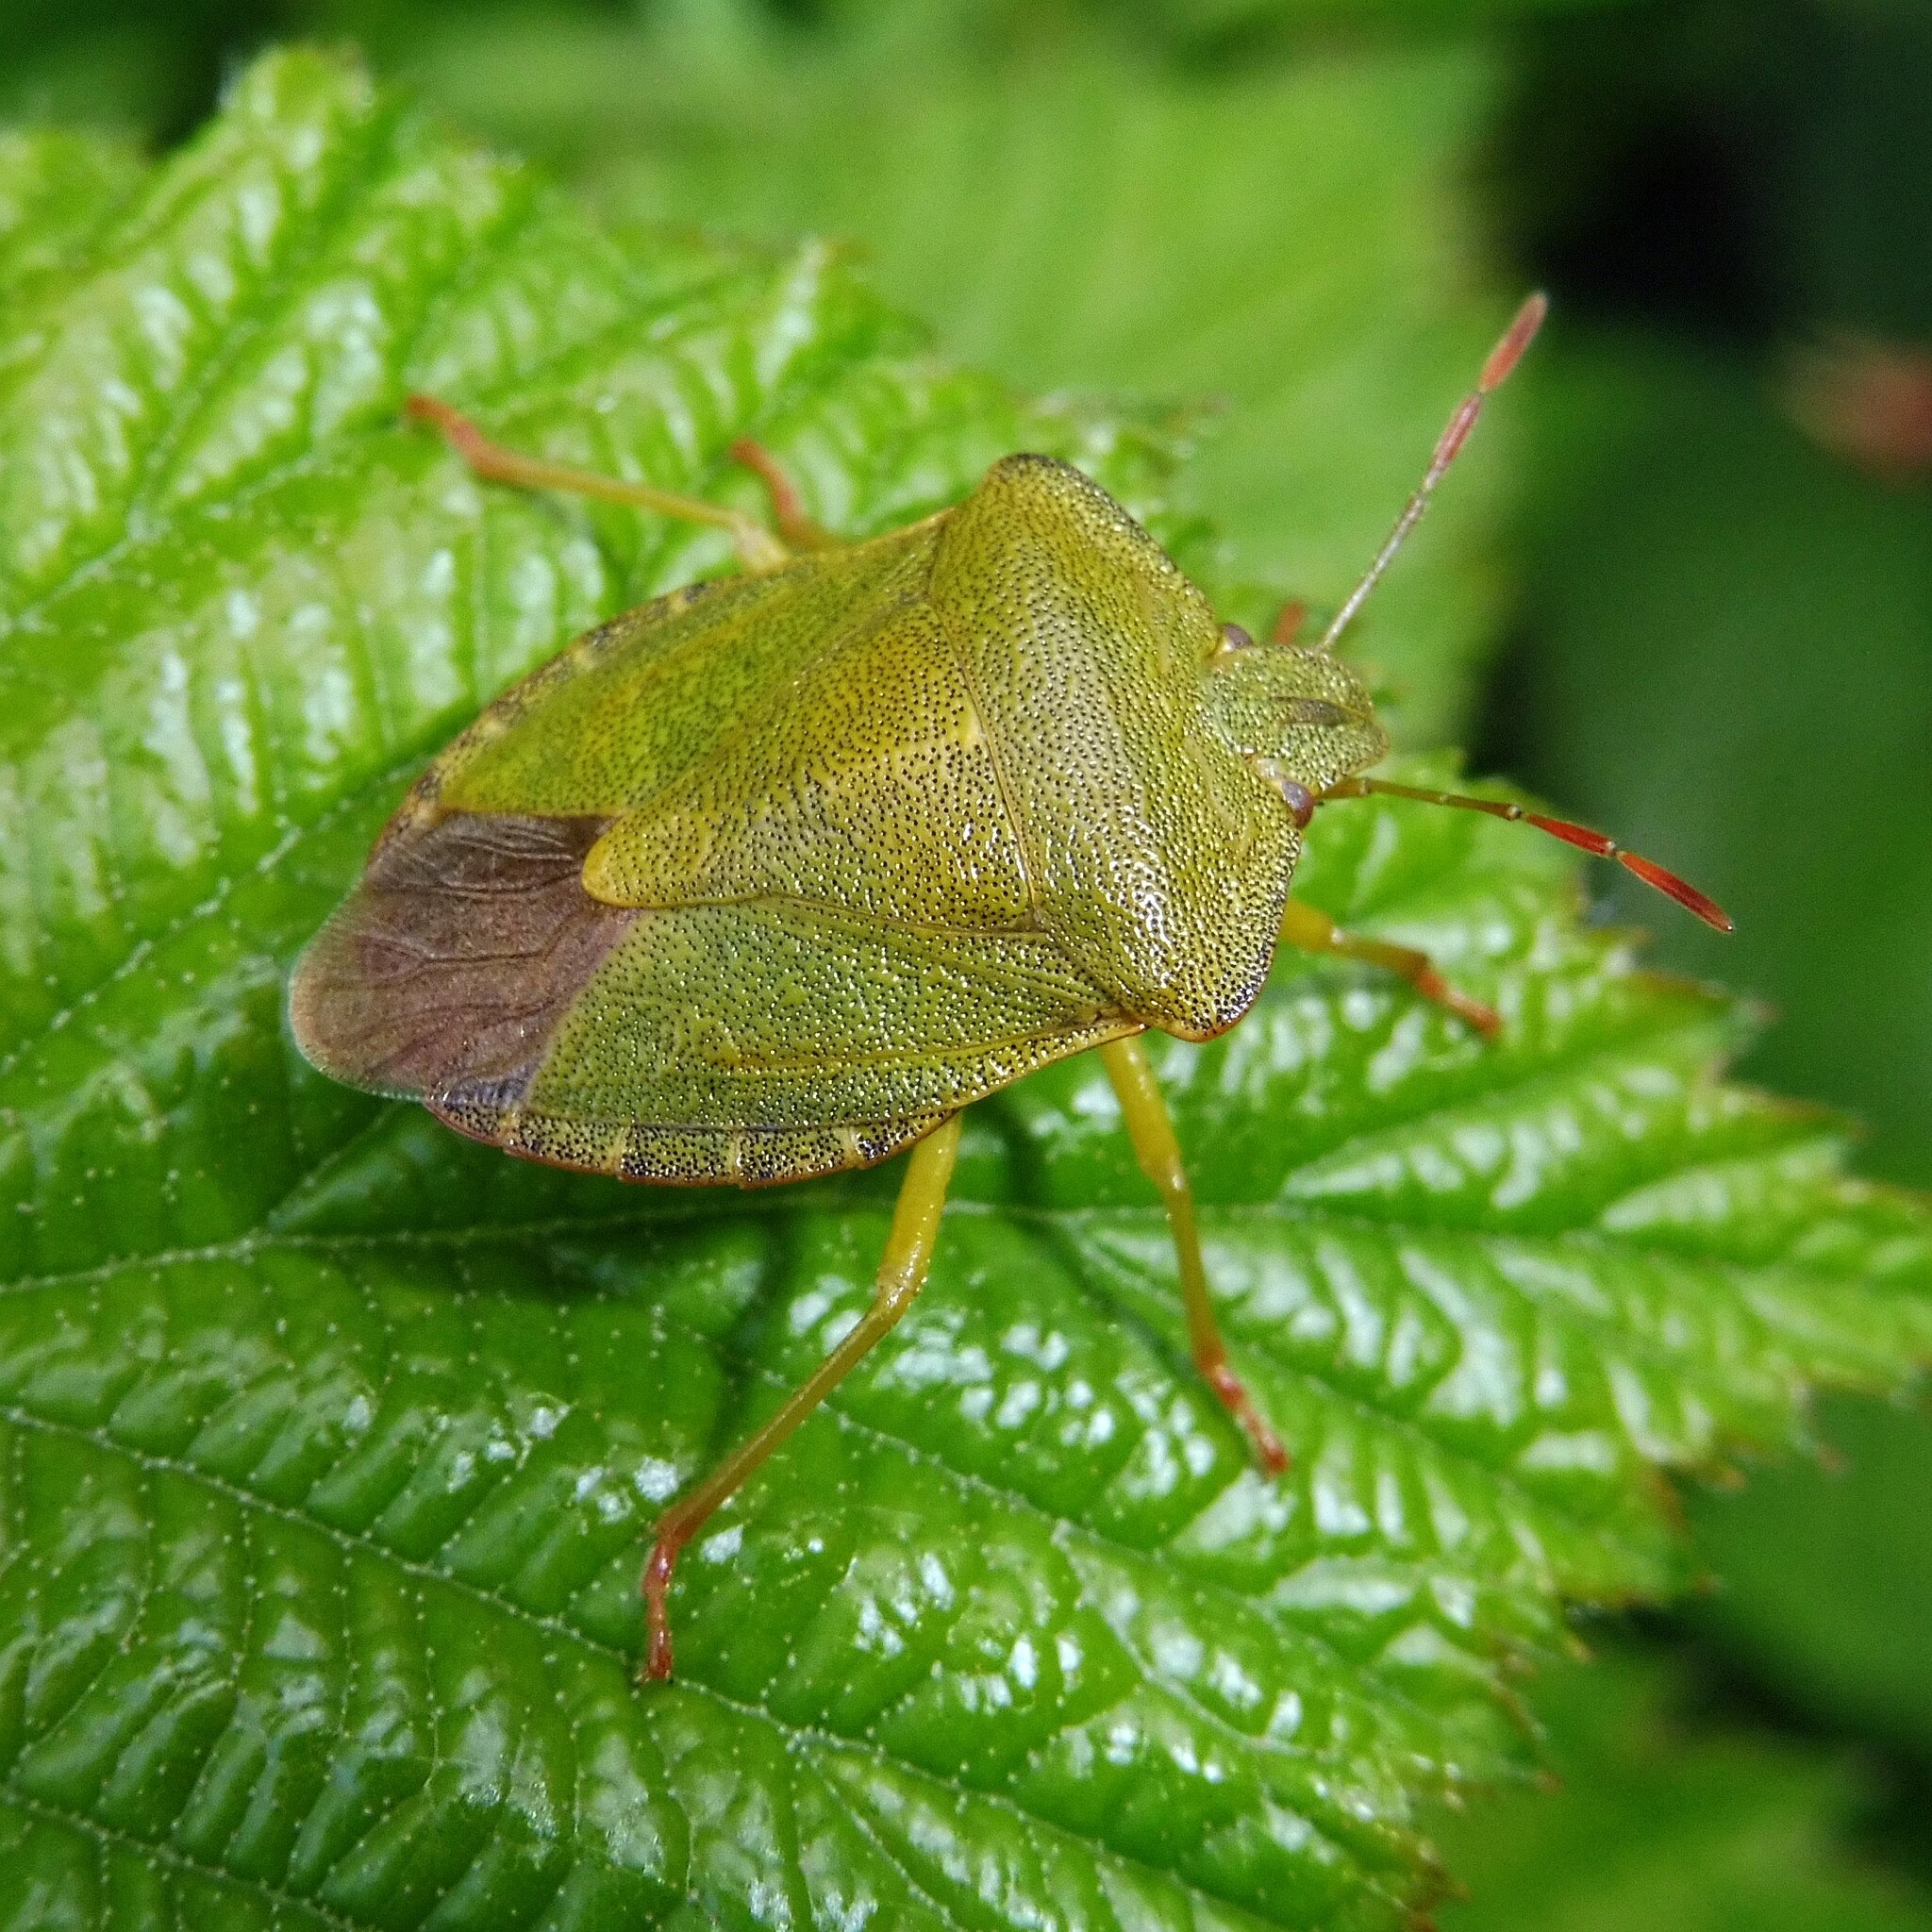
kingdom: Animalia
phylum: Arthropoda
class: Insecta
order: Hemiptera
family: Pentatomidae
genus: Palomena
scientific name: Palomena prasina
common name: Green shieldbug
